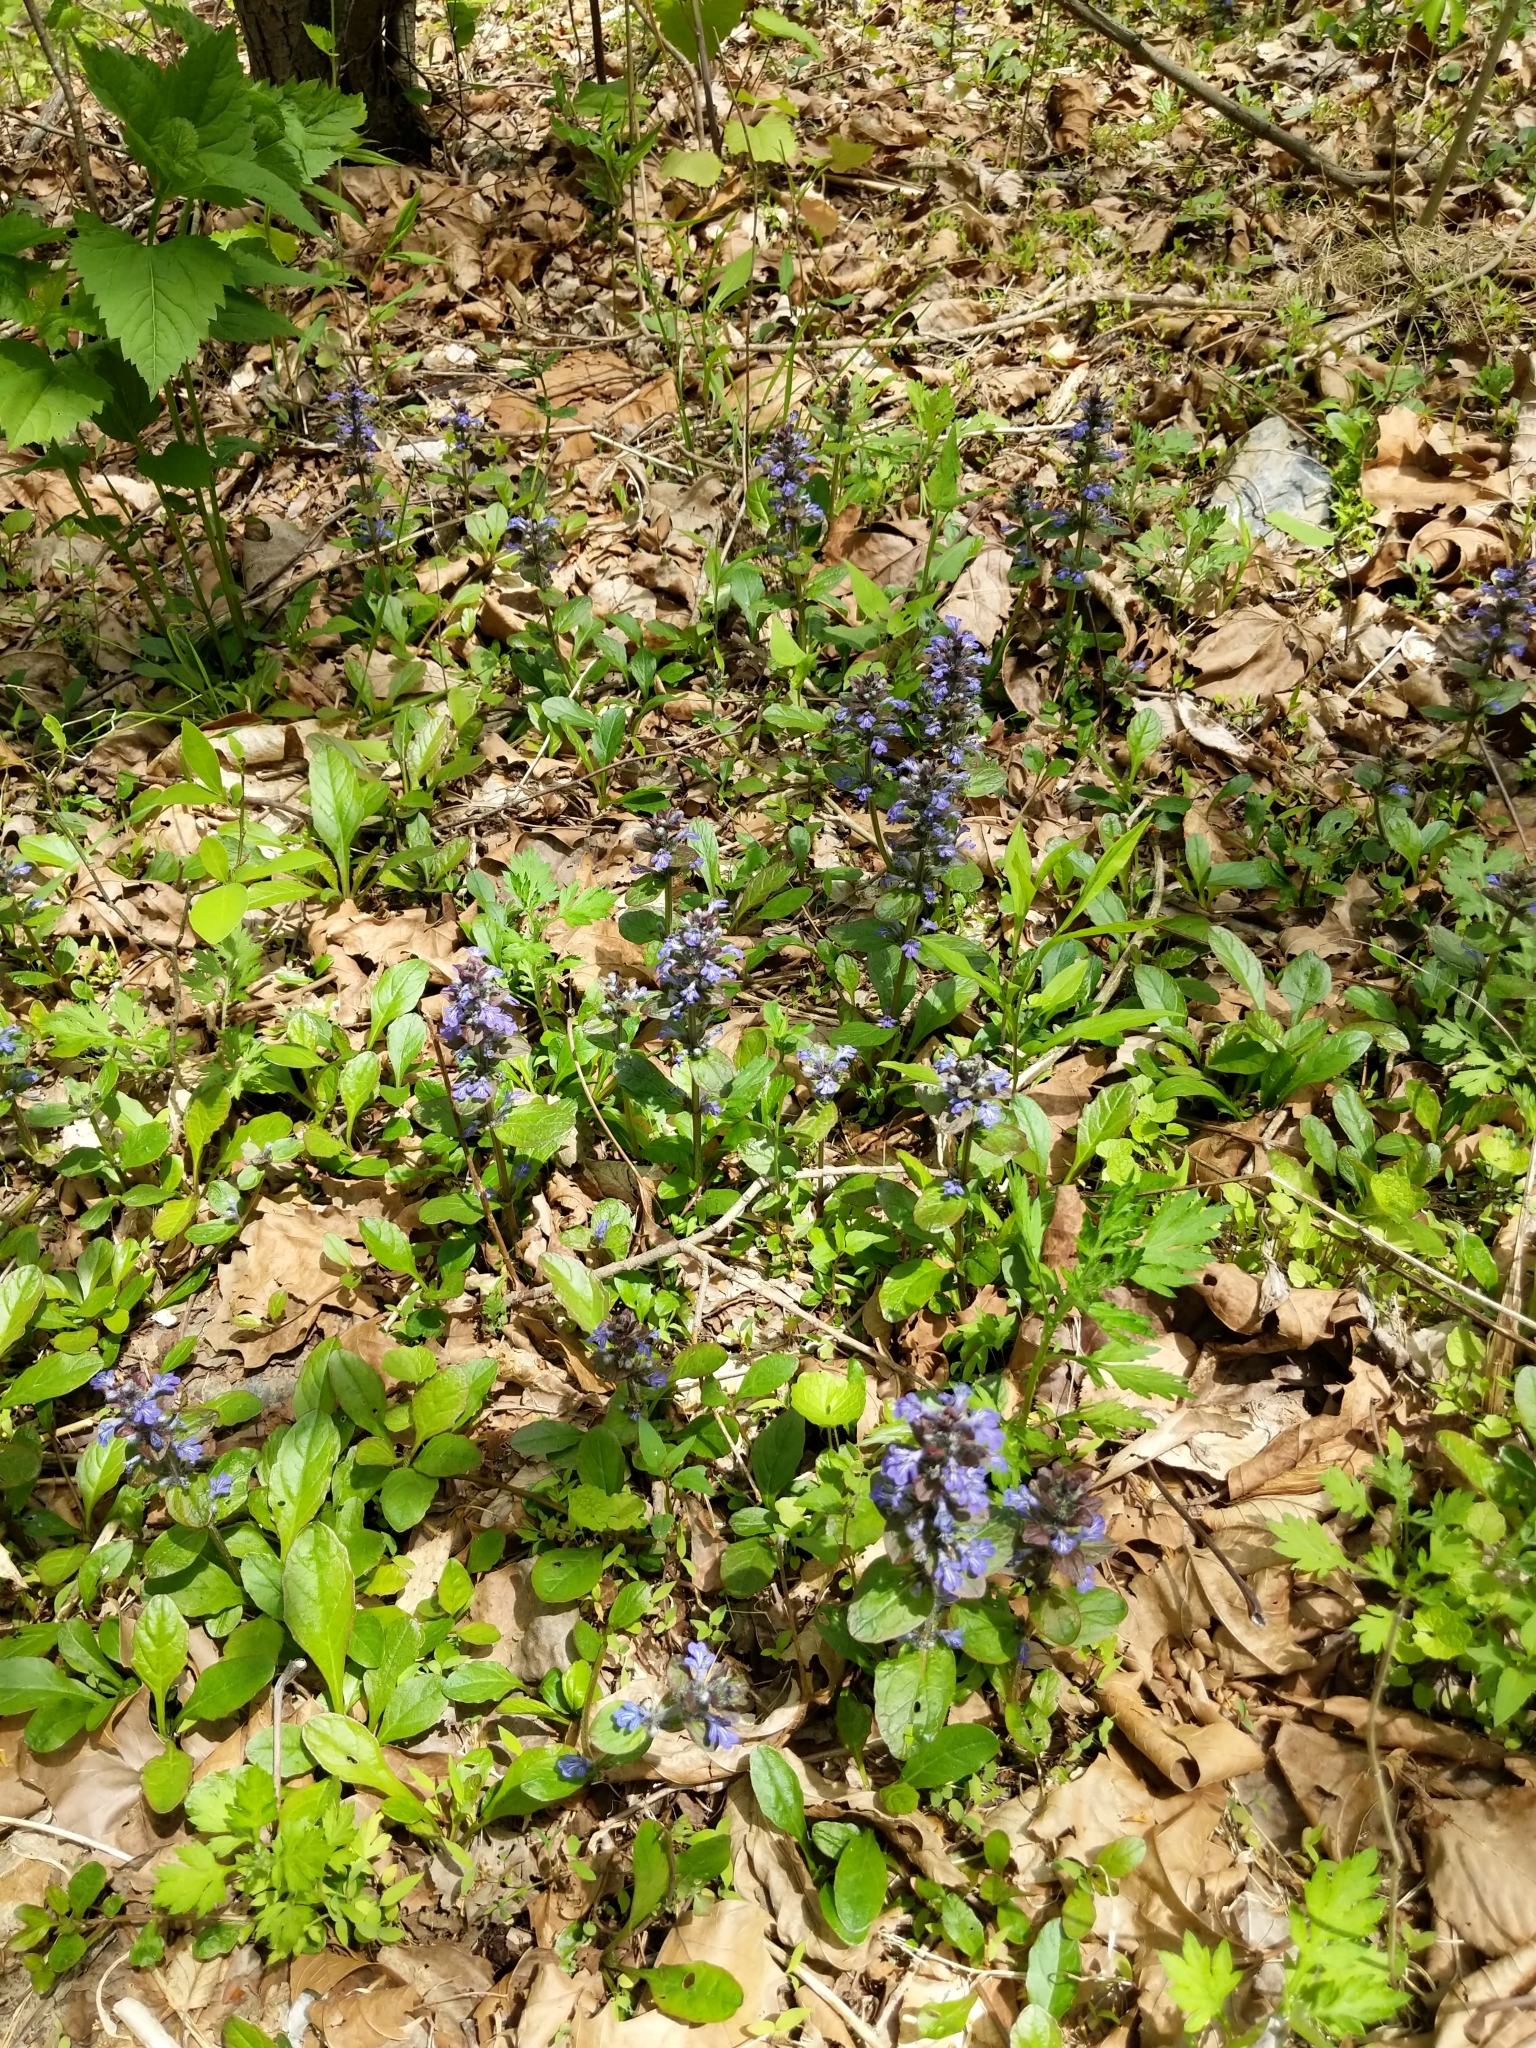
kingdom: Plantae
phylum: Tracheophyta
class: Magnoliopsida
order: Lamiales
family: Lamiaceae
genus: Ajuga
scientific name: Ajuga reptans
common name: Bugle
